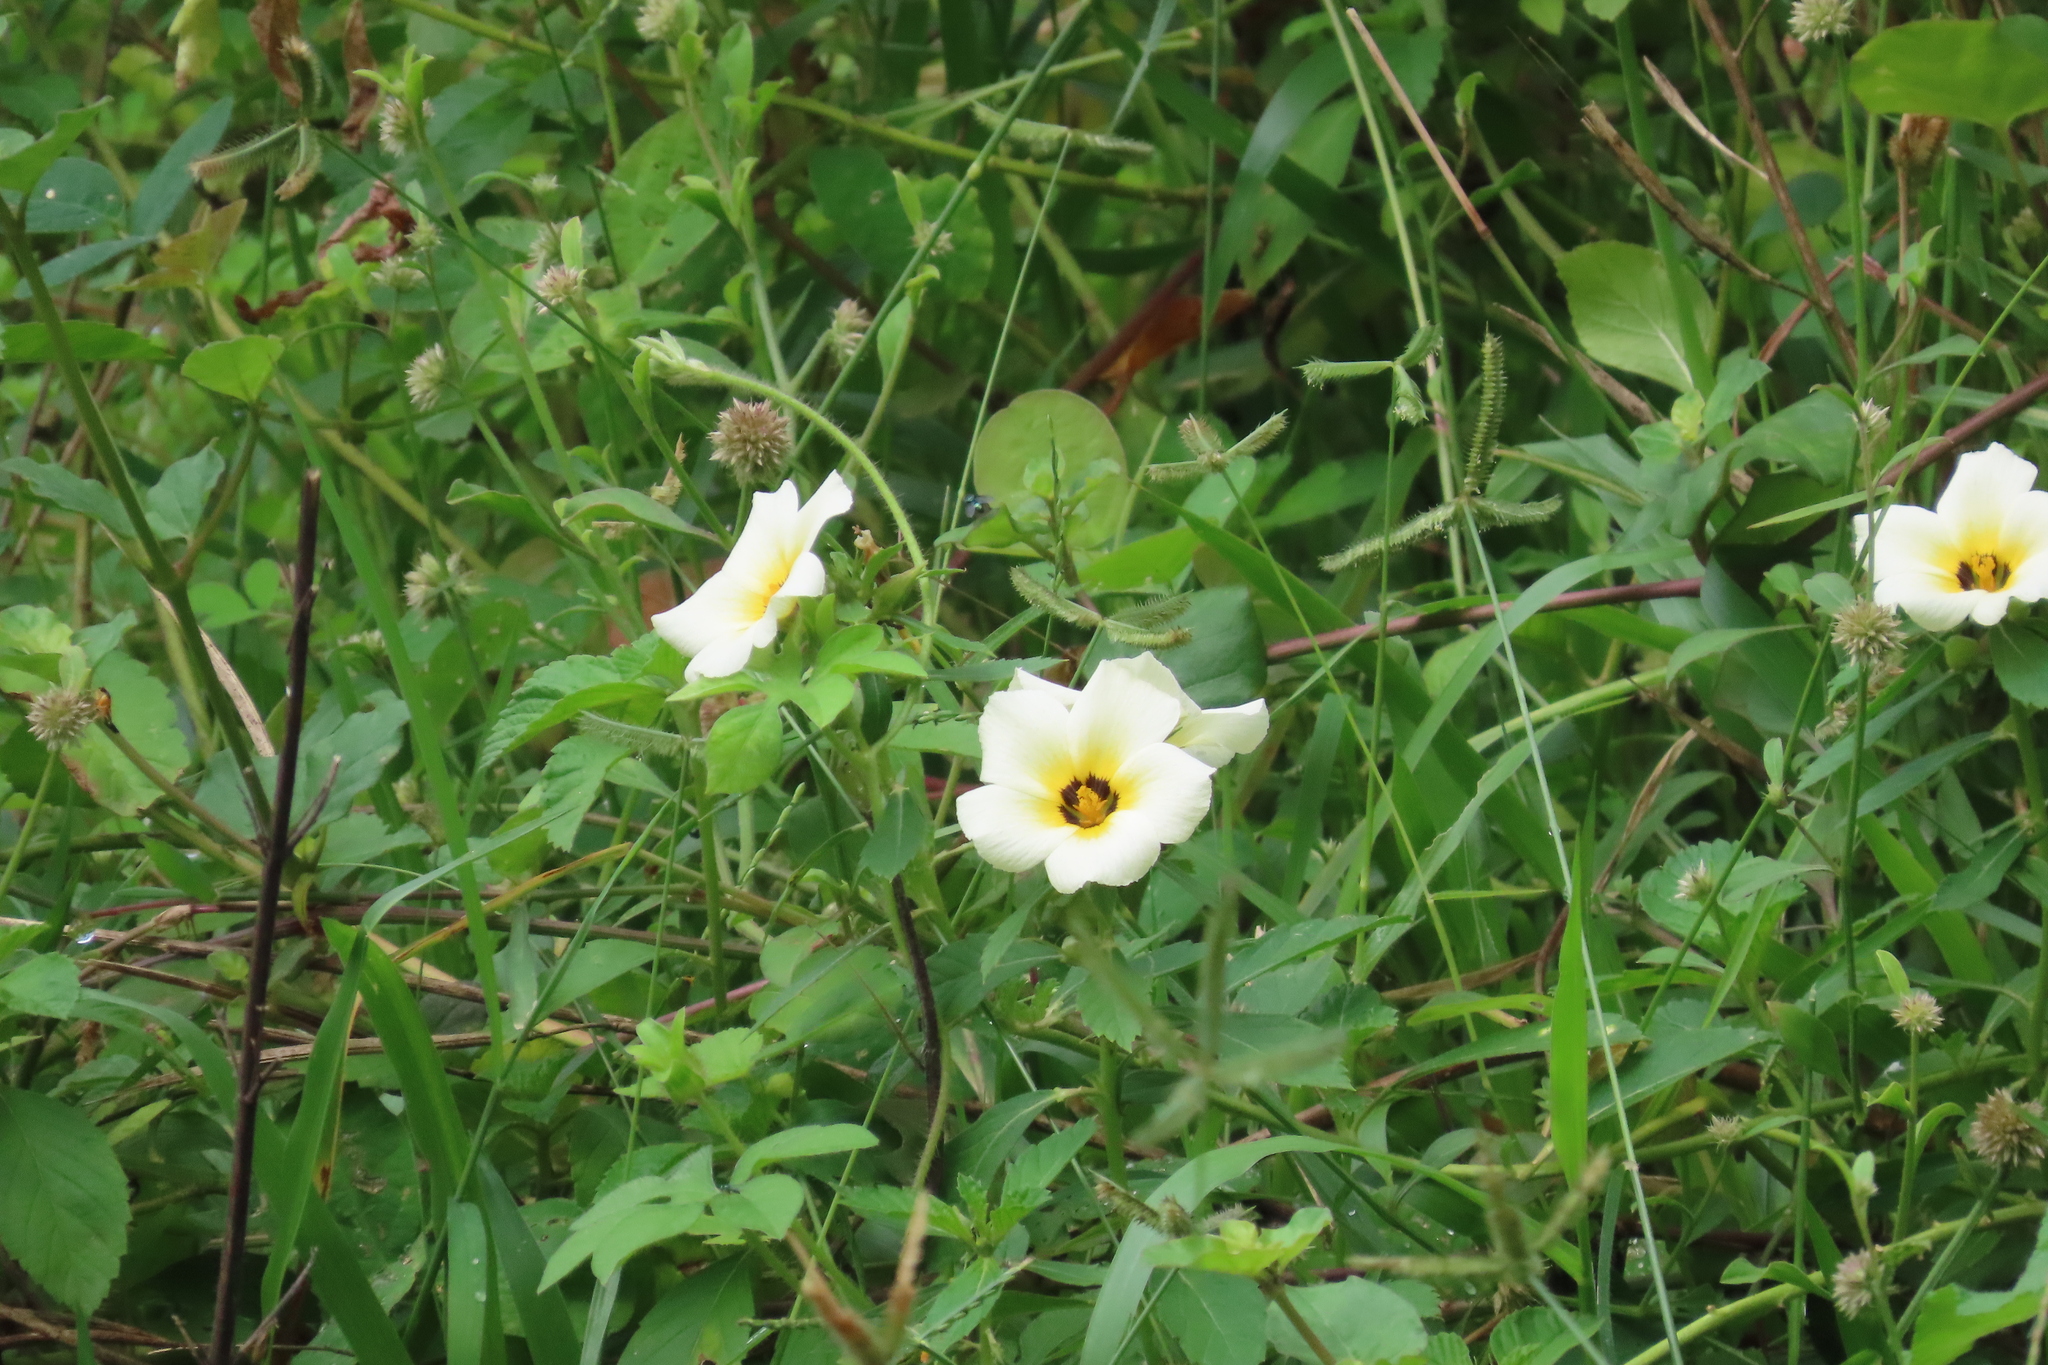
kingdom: Plantae
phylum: Tracheophyta
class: Magnoliopsida
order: Malpighiales
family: Turneraceae
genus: Turnera
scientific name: Turnera subulata
